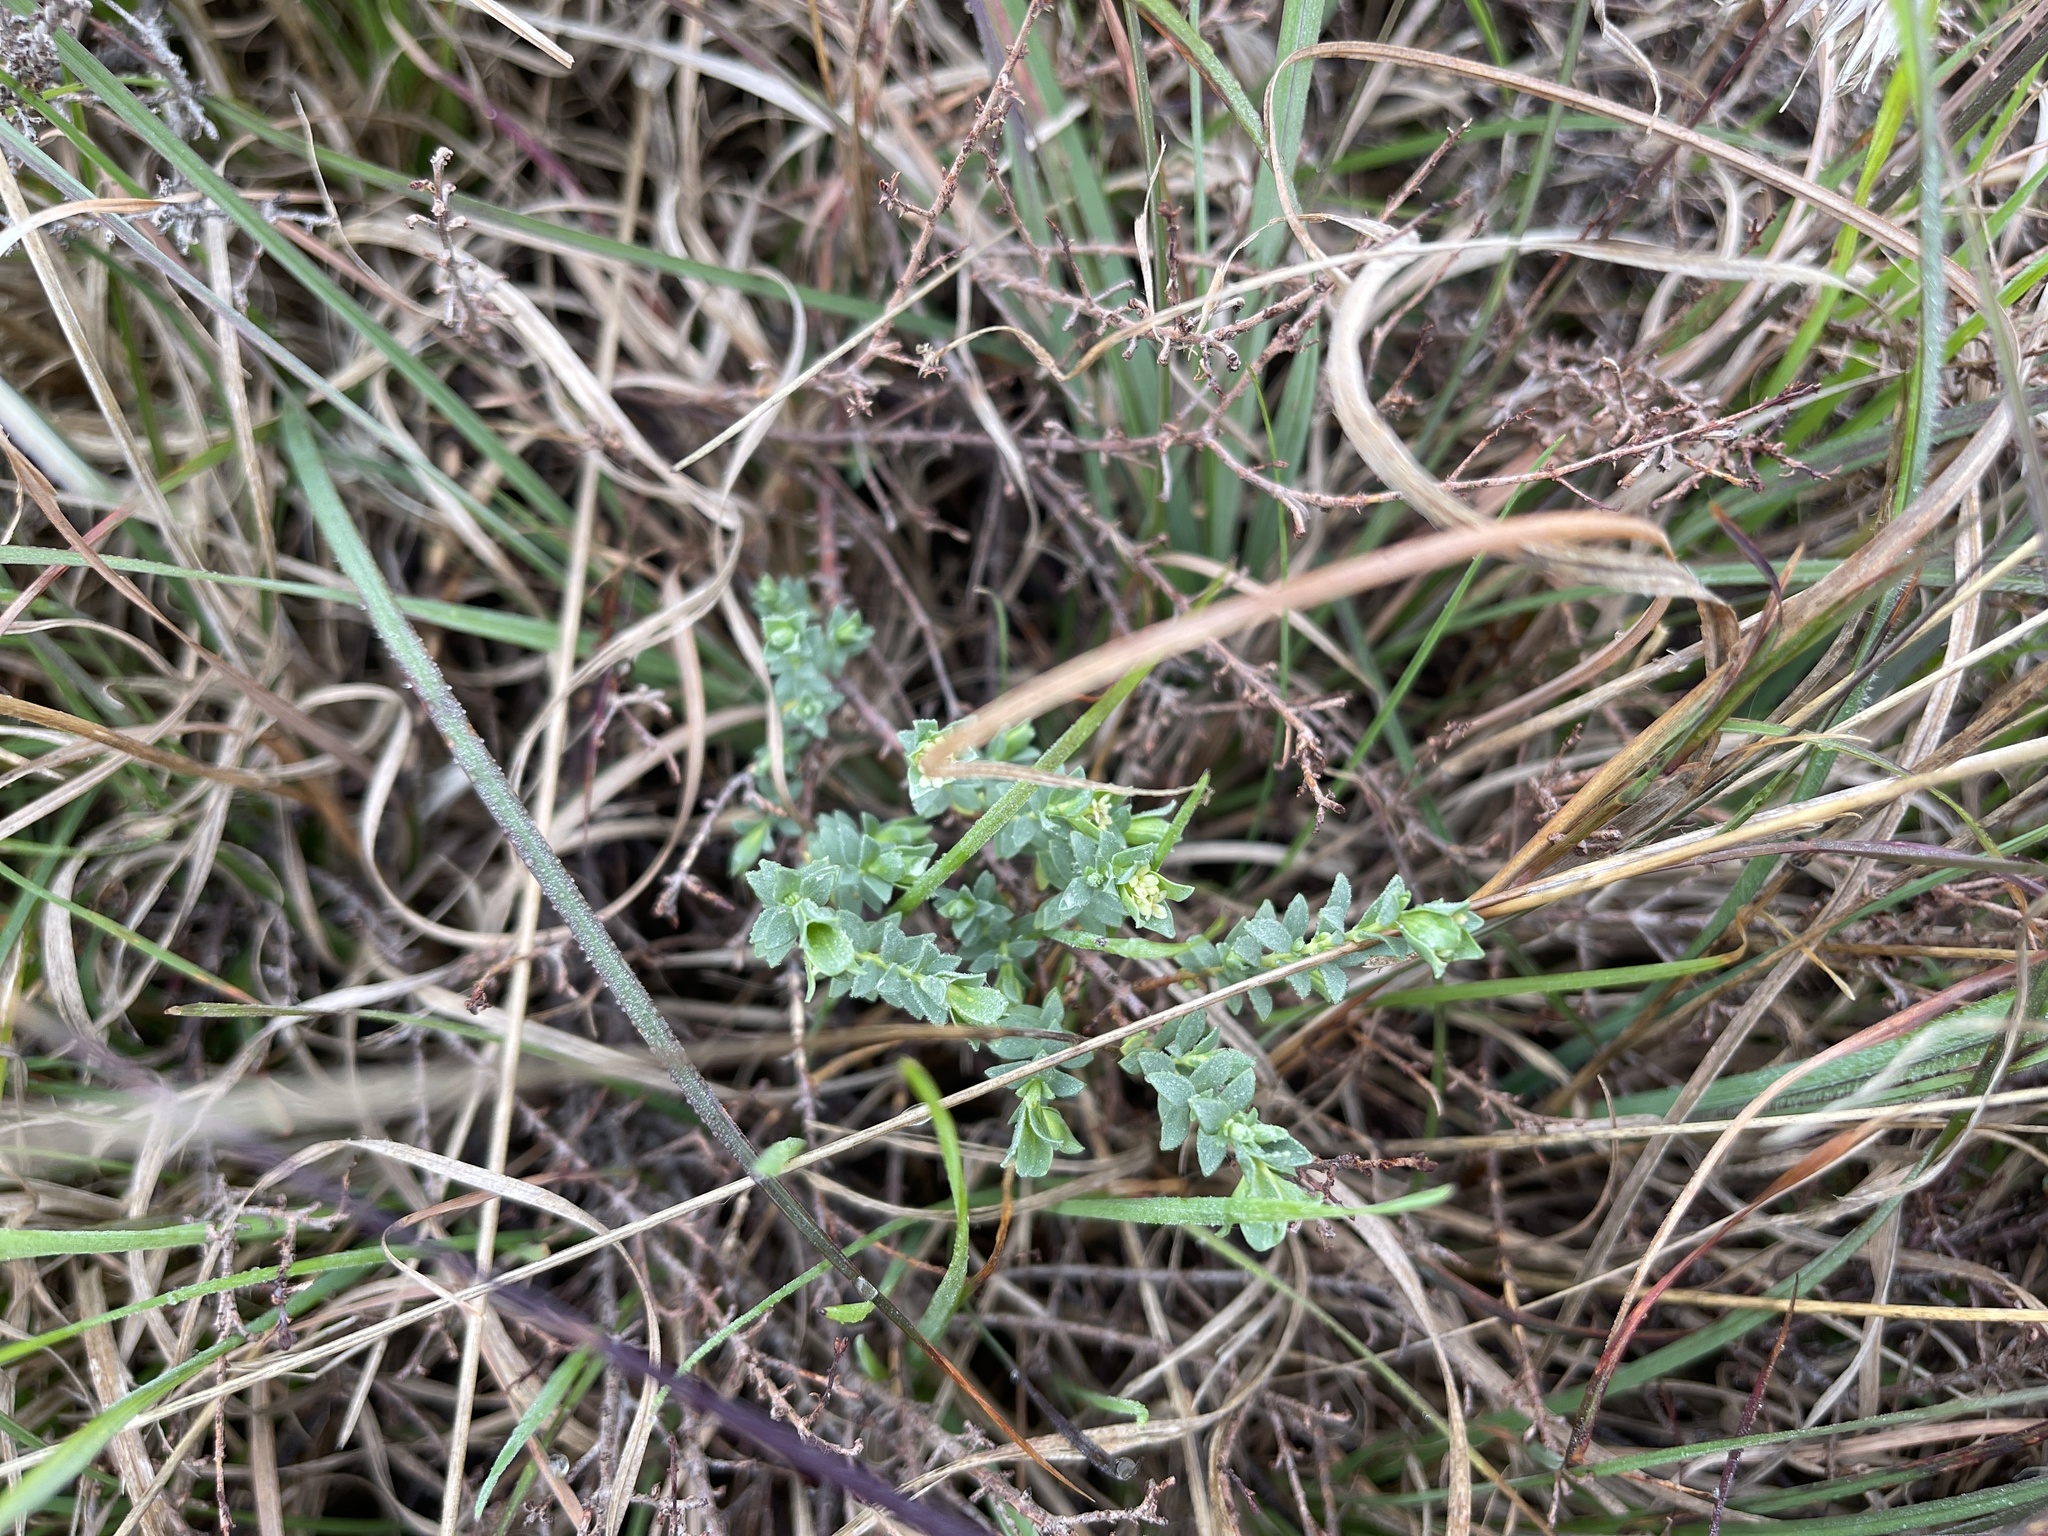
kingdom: Plantae
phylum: Tracheophyta
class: Magnoliopsida
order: Malvales
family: Thymelaeaceae
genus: Pimelea
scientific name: Pimelea spinescens
